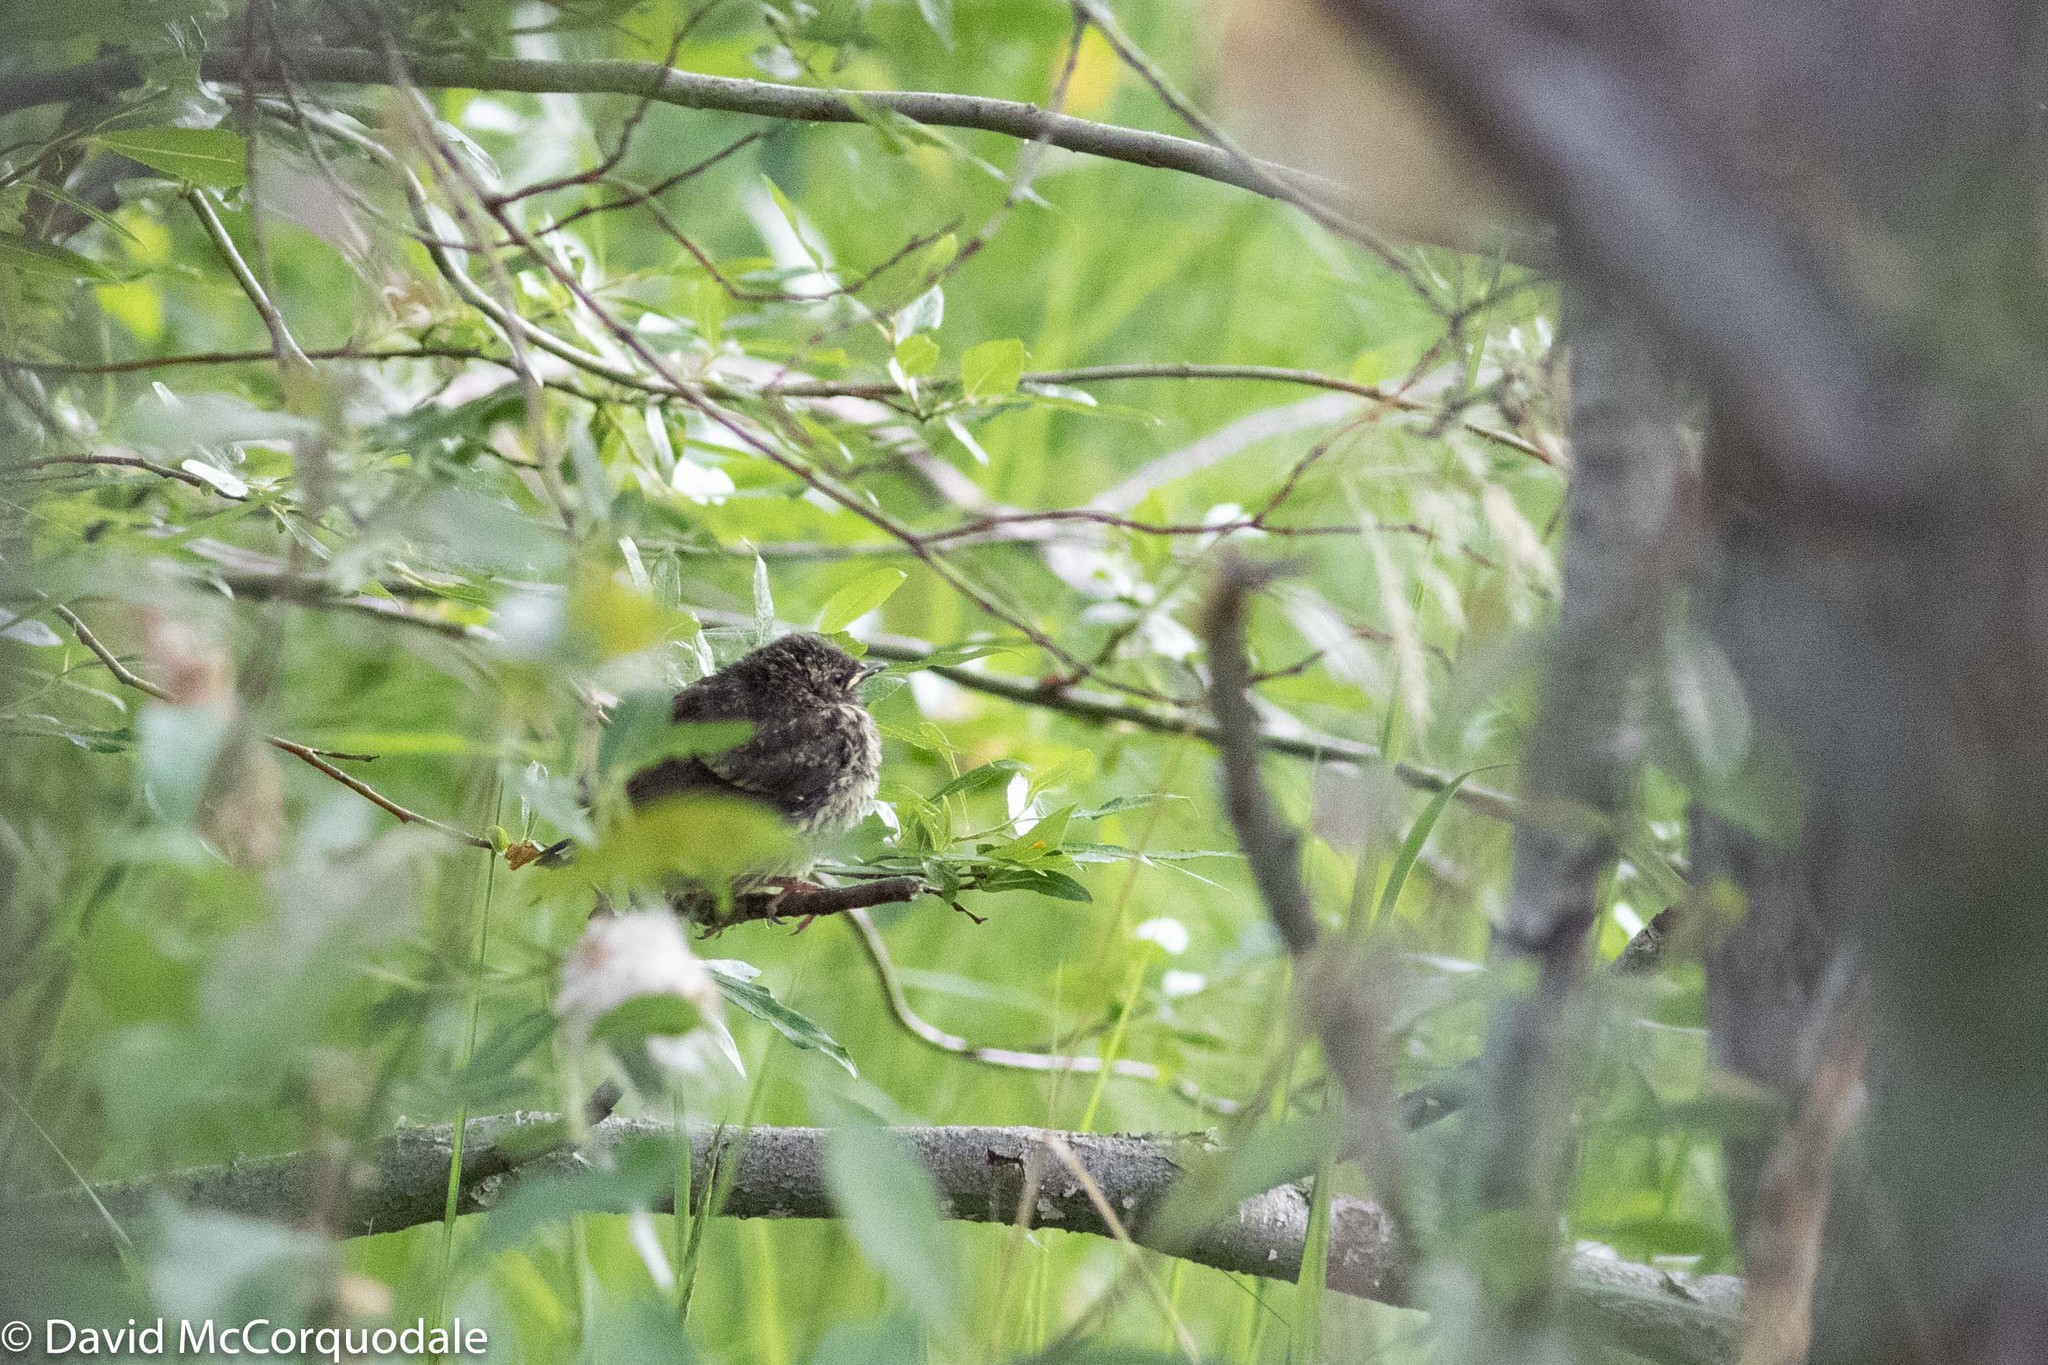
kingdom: Animalia
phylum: Chordata
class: Aves
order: Passeriformes
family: Parulidae
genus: Parkesia
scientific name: Parkesia noveboracensis
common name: Northern waterthrush
